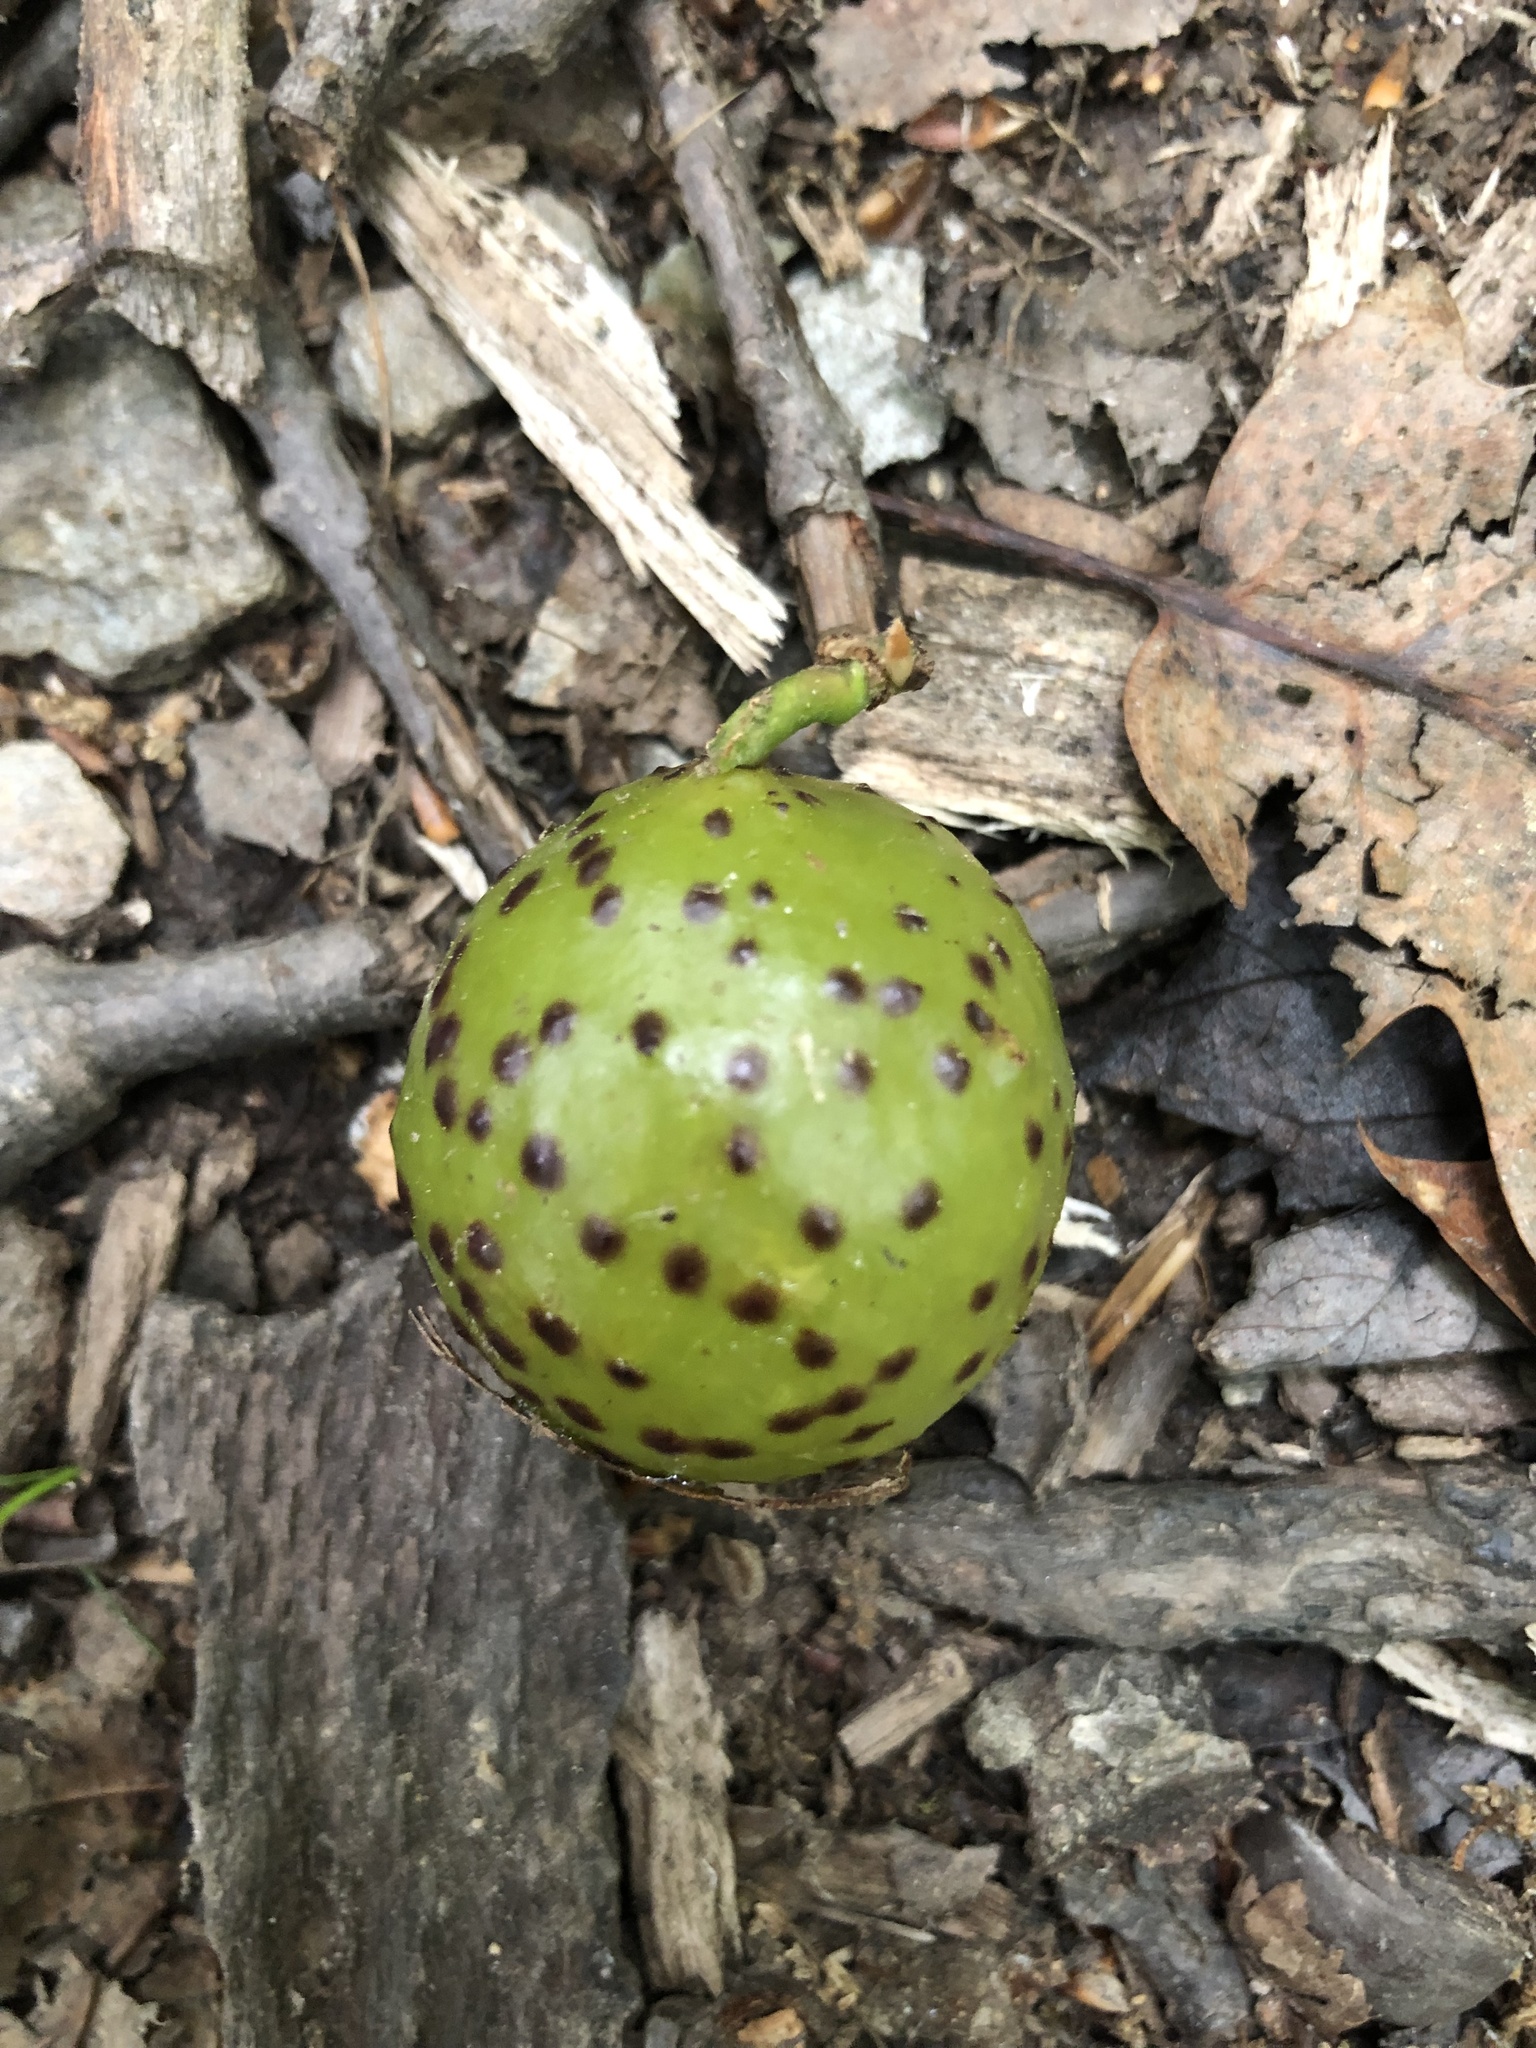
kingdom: Animalia
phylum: Arthropoda
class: Insecta
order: Hymenoptera
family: Cynipidae
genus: Amphibolips
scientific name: Amphibolips
